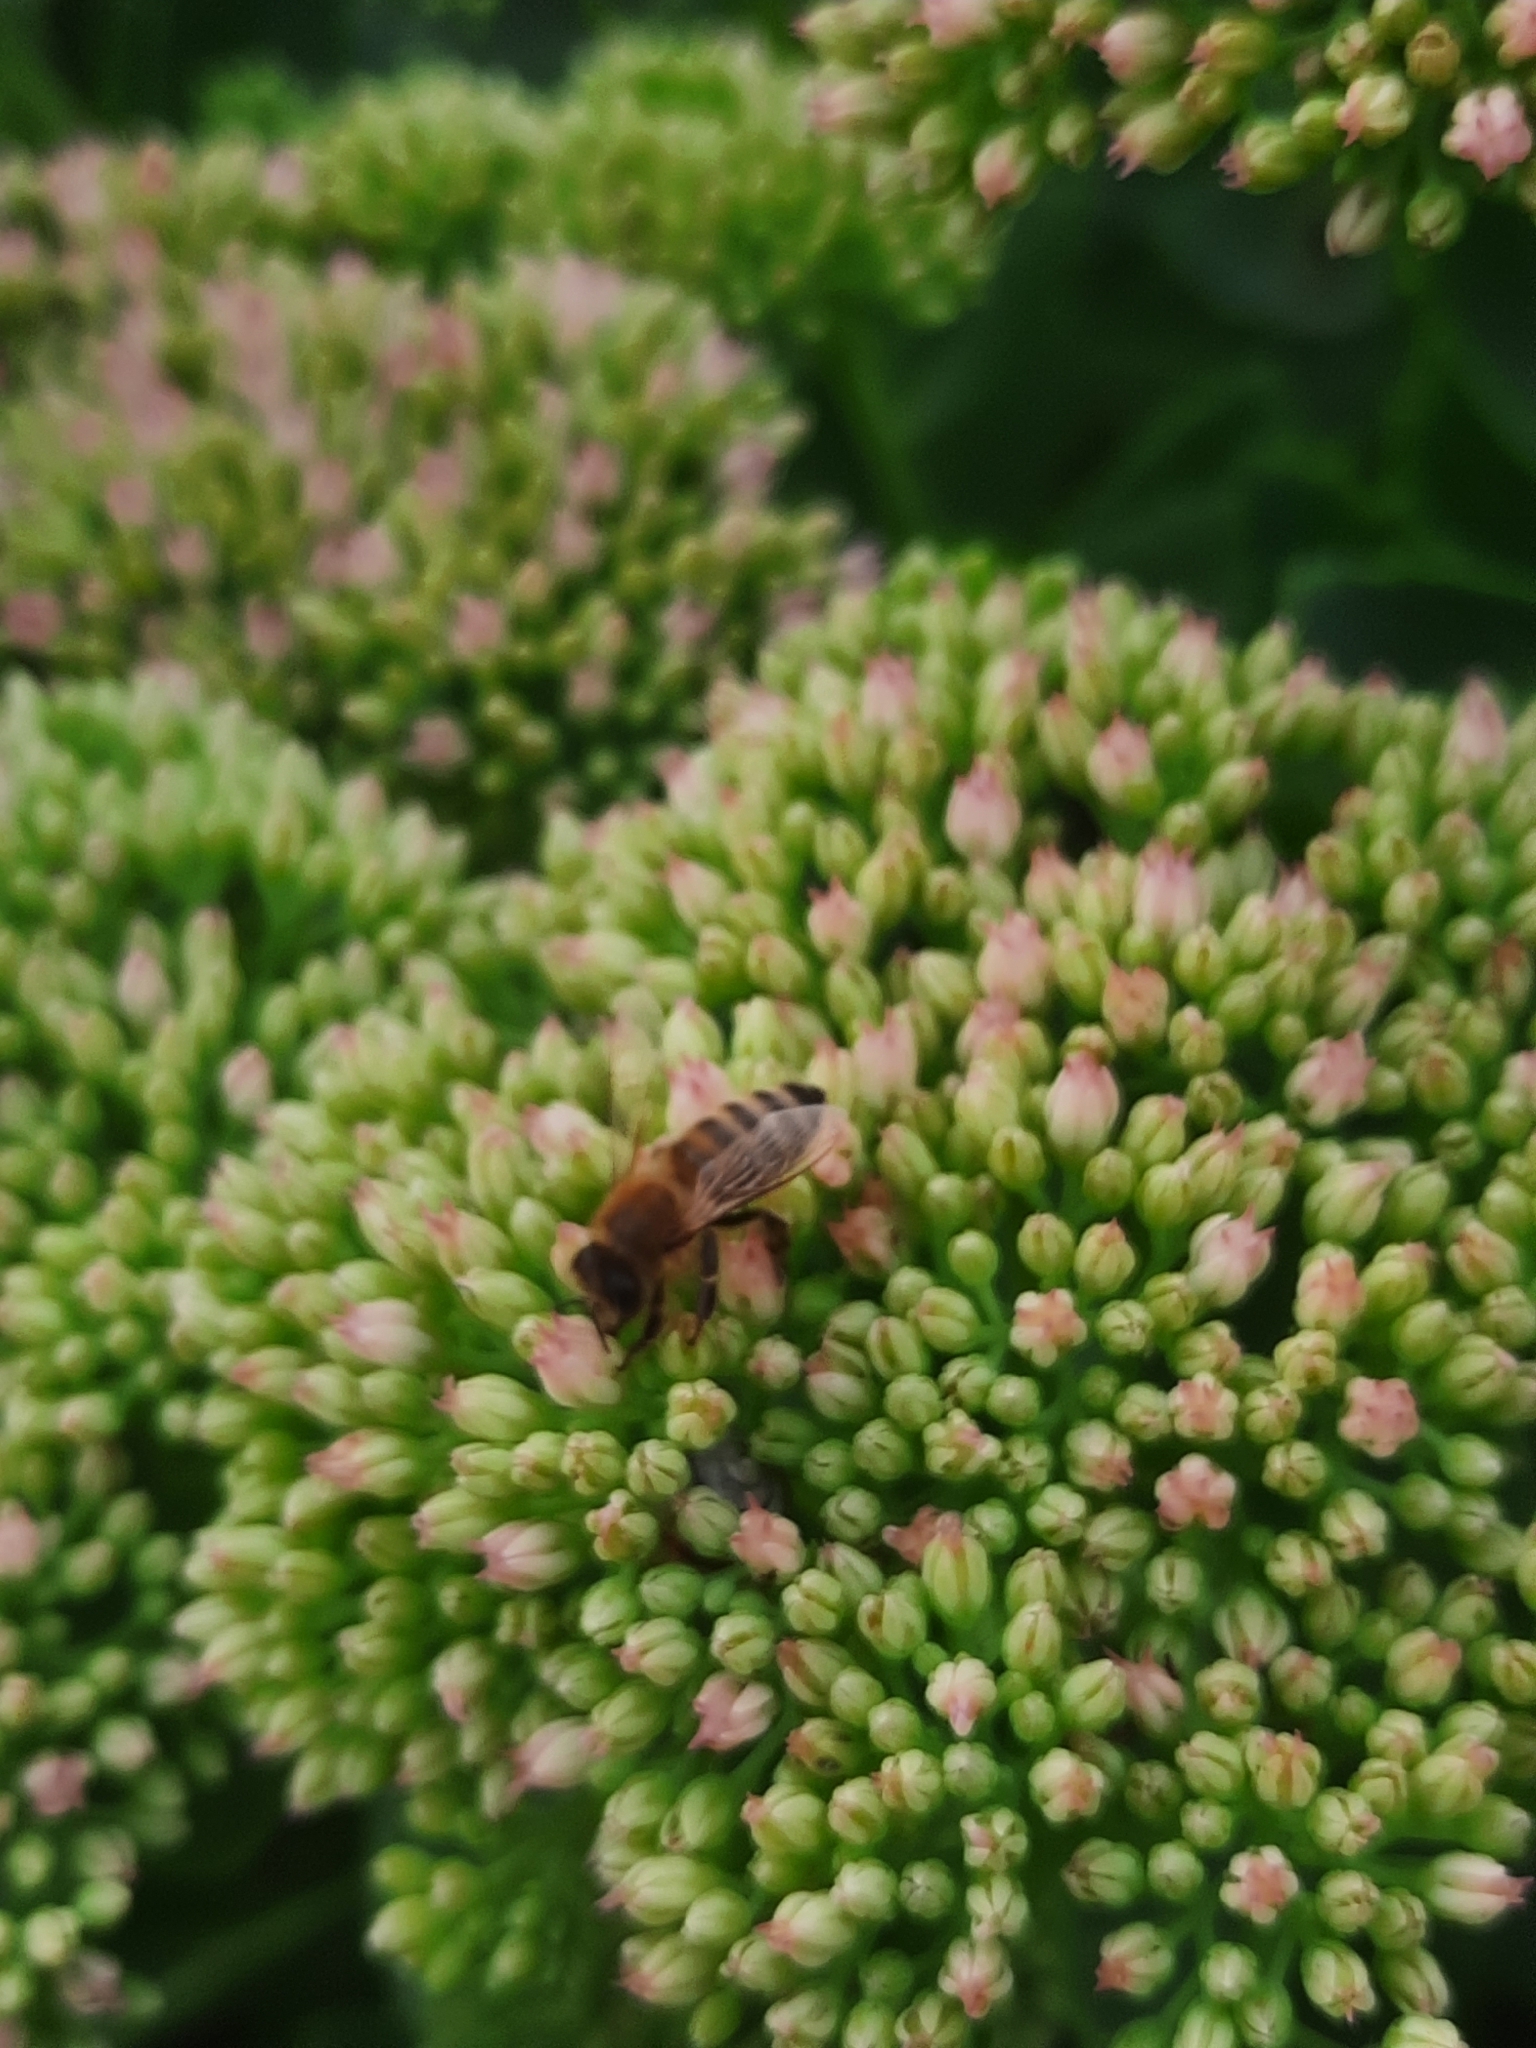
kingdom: Animalia
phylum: Arthropoda
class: Insecta
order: Hymenoptera
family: Apidae
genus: Apis
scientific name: Apis mellifera
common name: Honey bee
